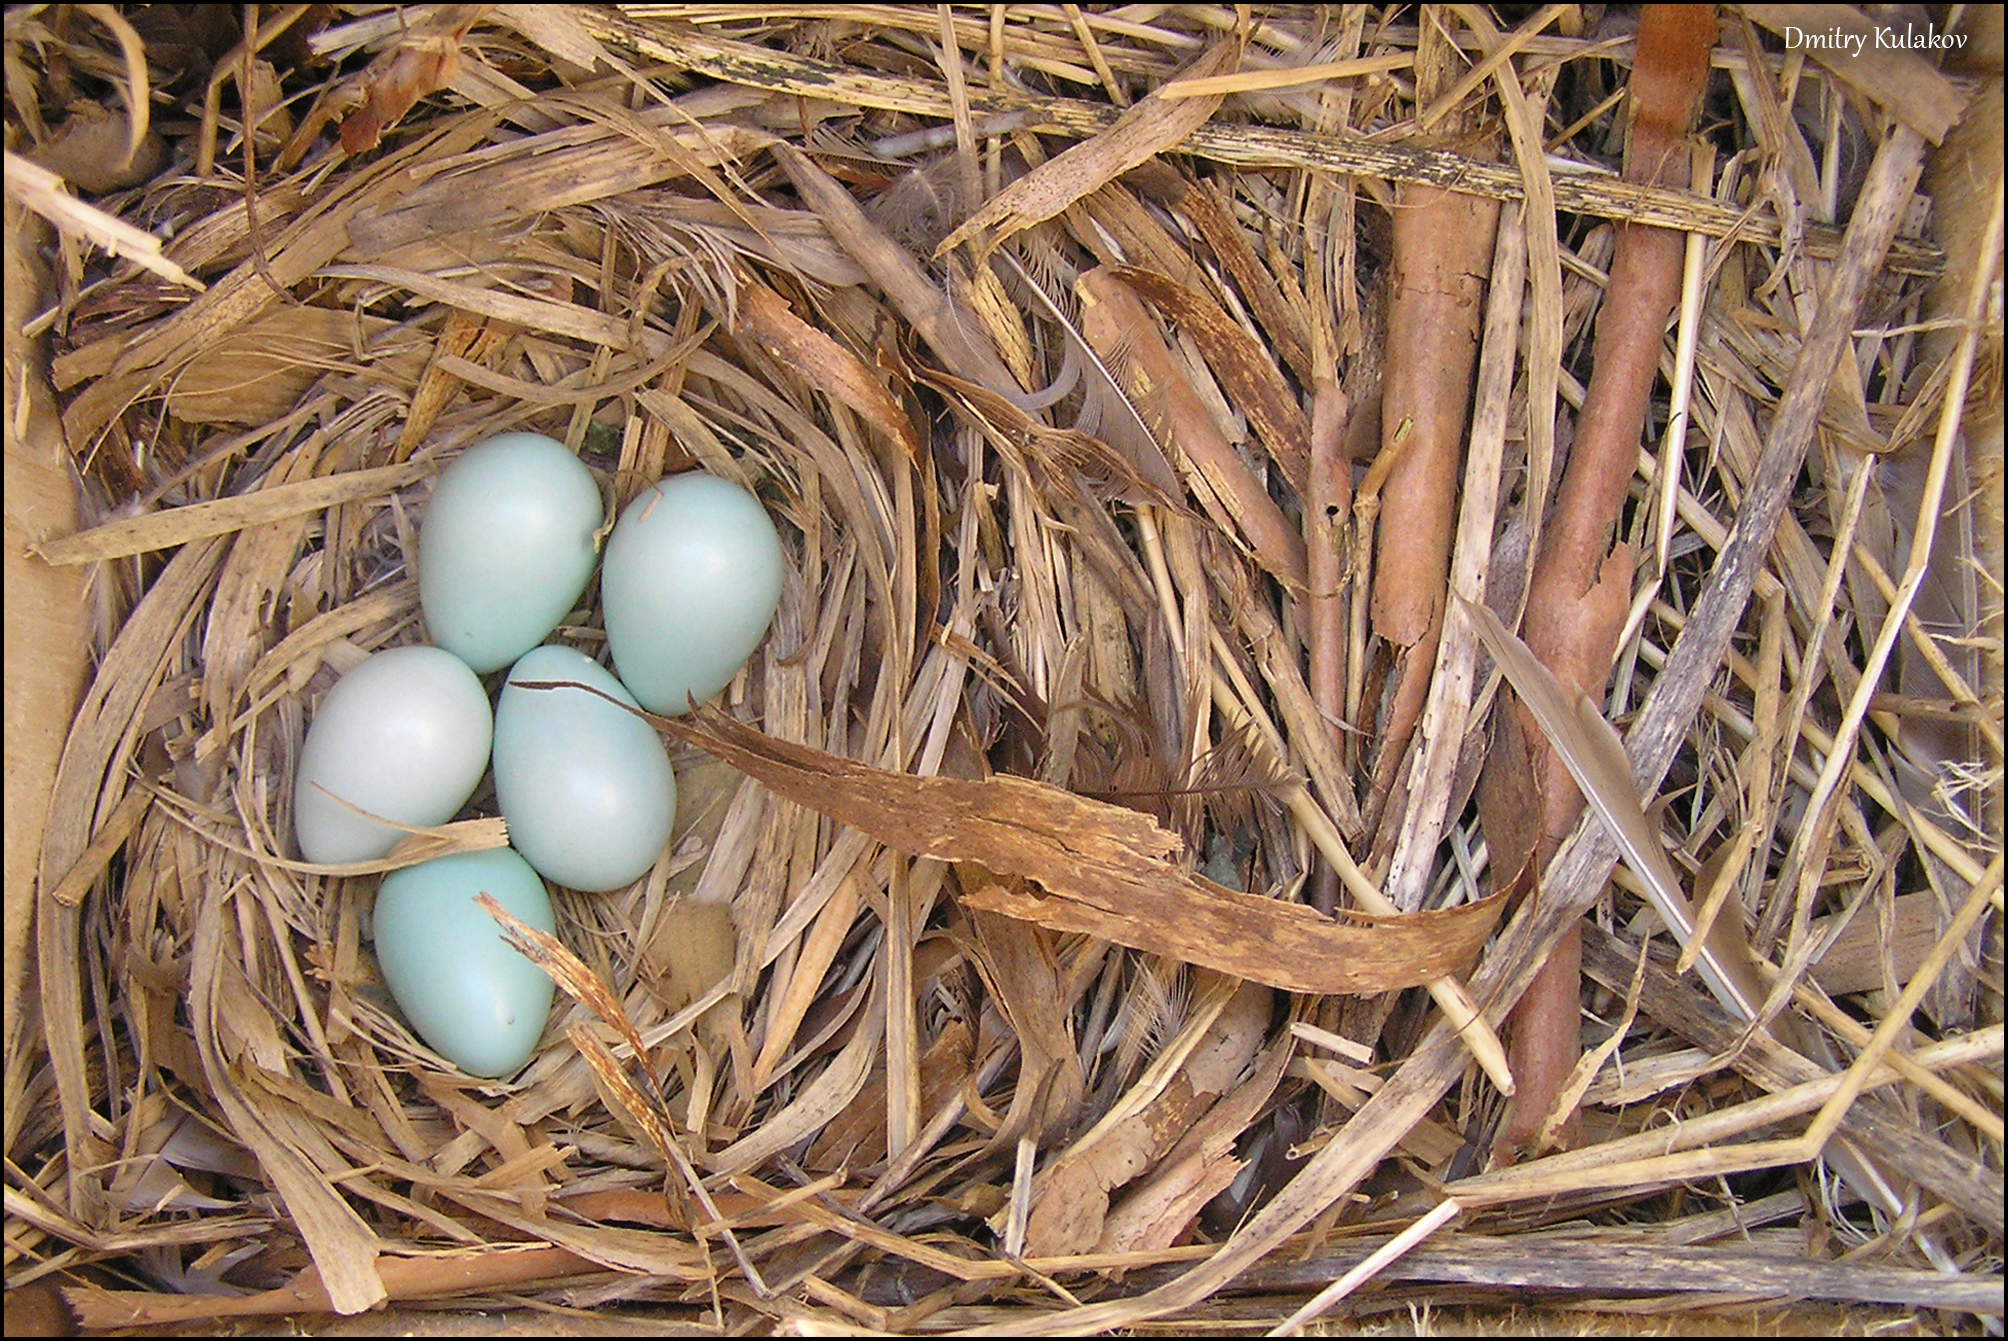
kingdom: Animalia
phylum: Chordata
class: Aves
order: Passeriformes
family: Sturnidae
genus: Sturnus
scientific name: Sturnus vulgaris
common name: Common starling
